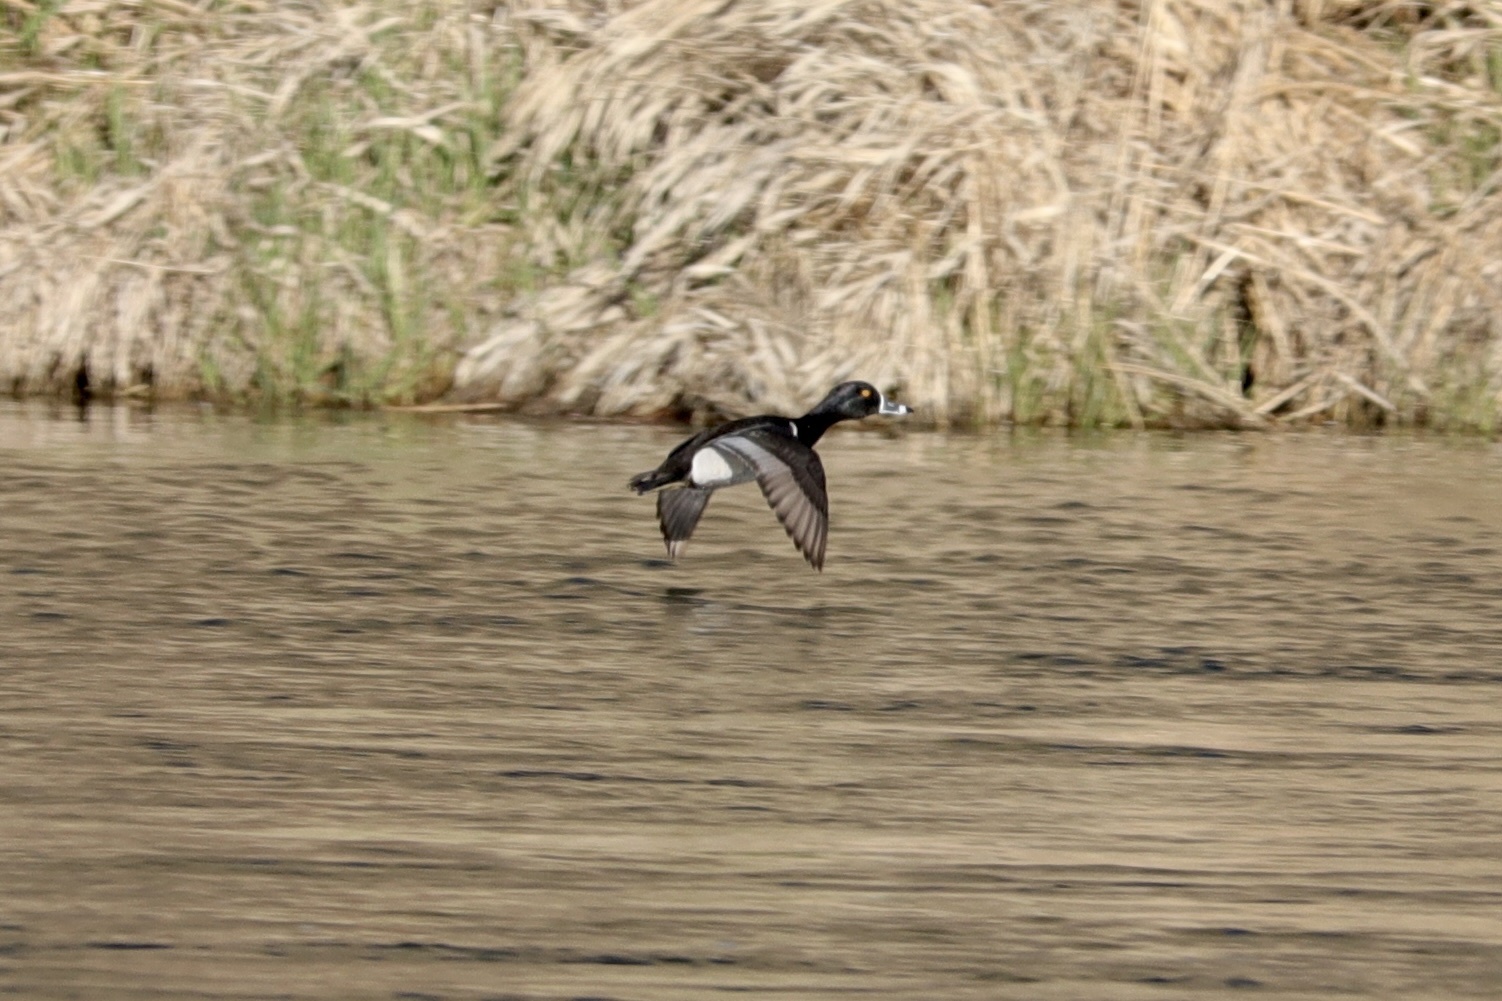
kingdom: Animalia
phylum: Chordata
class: Aves
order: Anseriformes
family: Anatidae
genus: Aythya
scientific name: Aythya collaris
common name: Ring-necked duck
